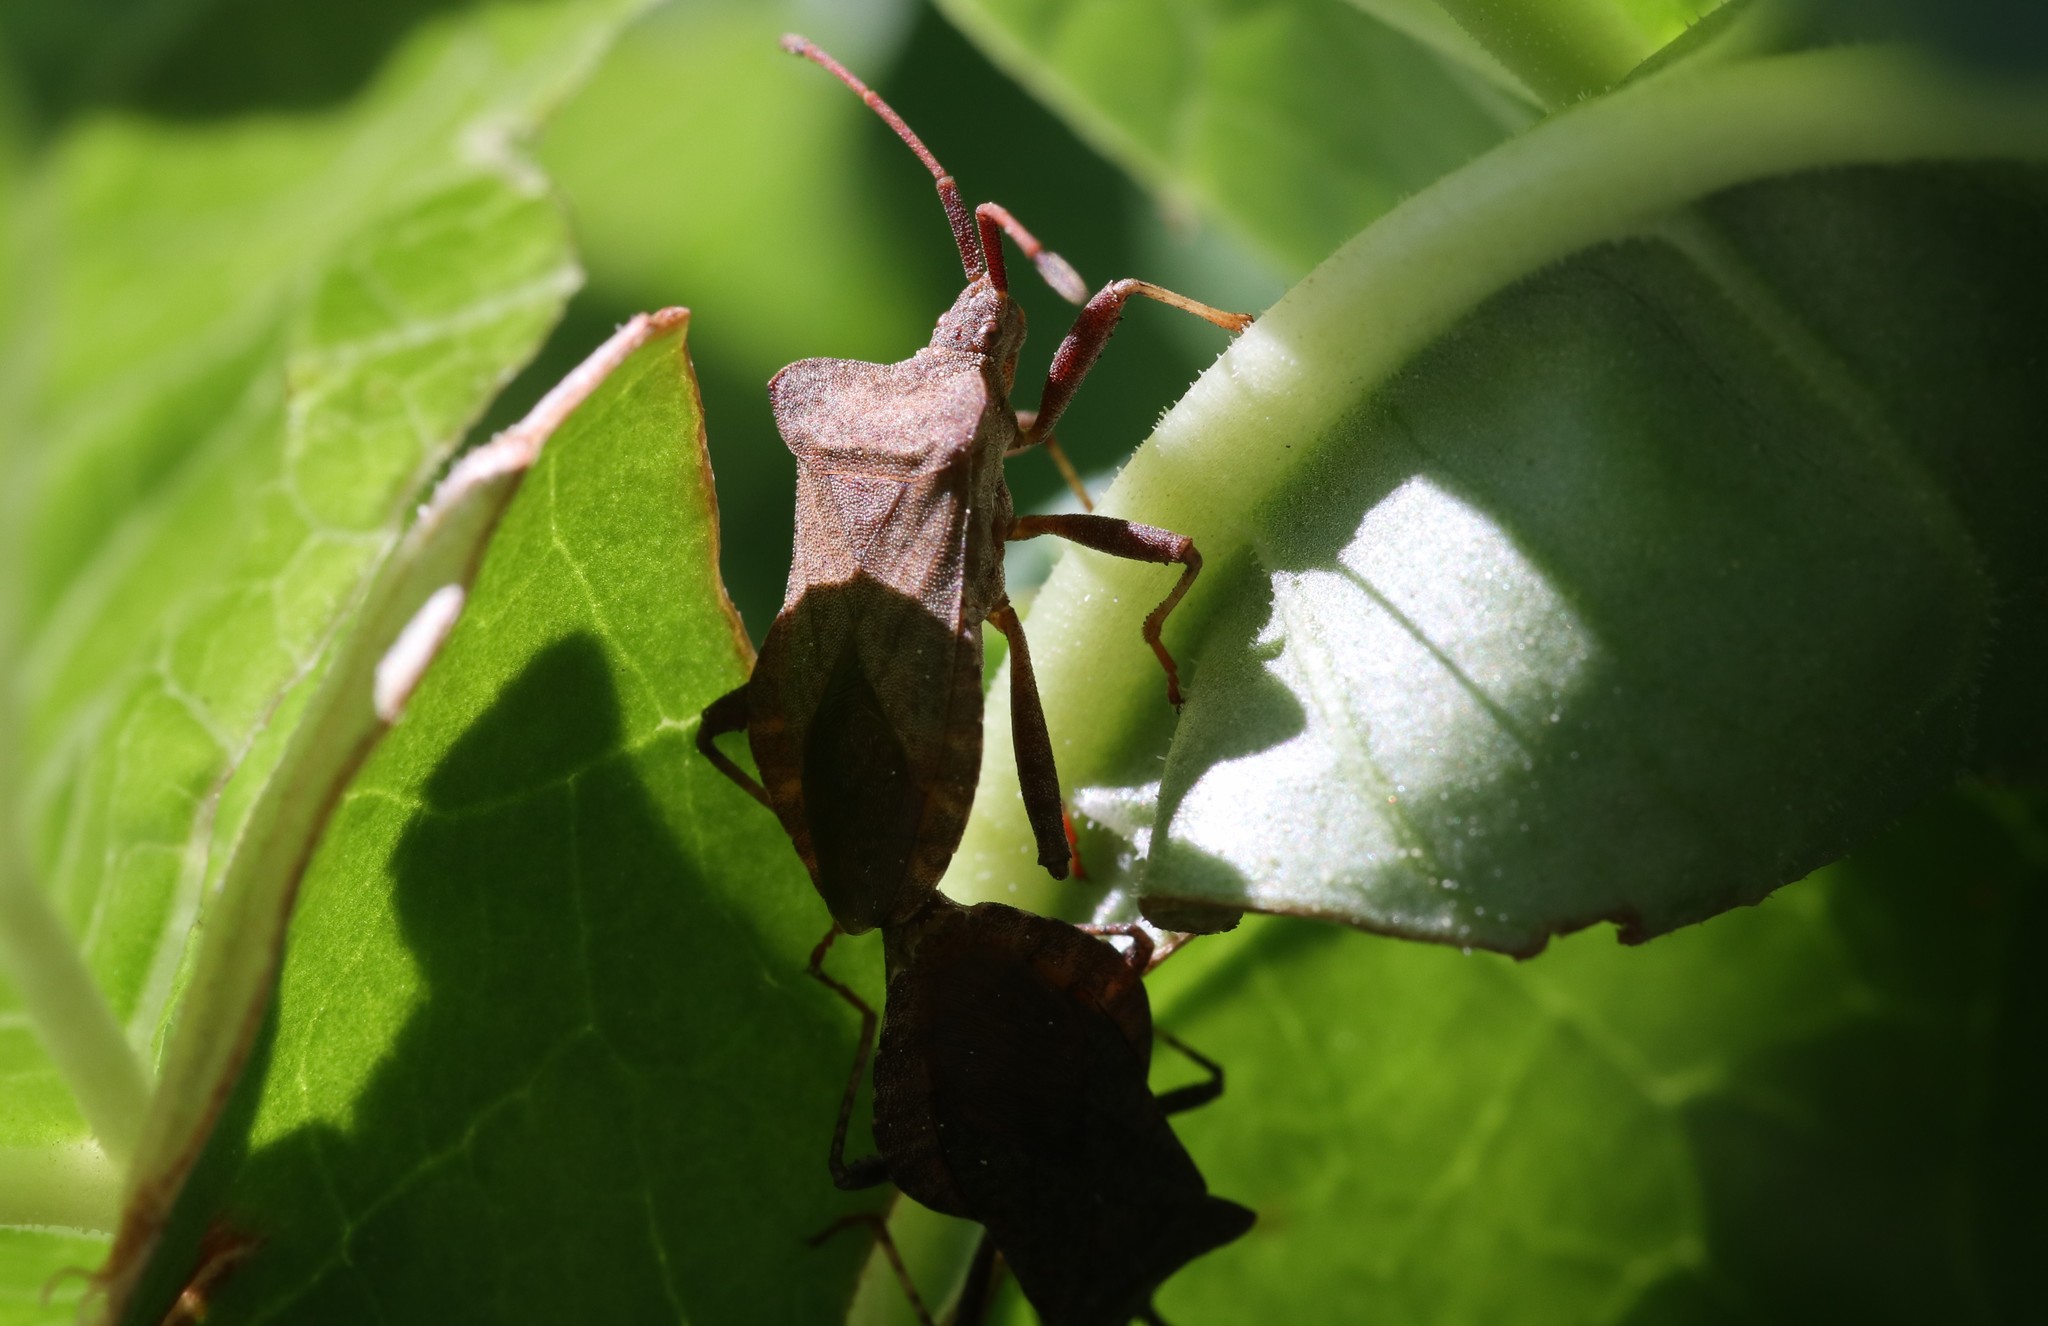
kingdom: Animalia
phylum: Arthropoda
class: Insecta
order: Hemiptera
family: Coreidae
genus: Coreus
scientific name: Coreus marginatus
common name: Dock bug
